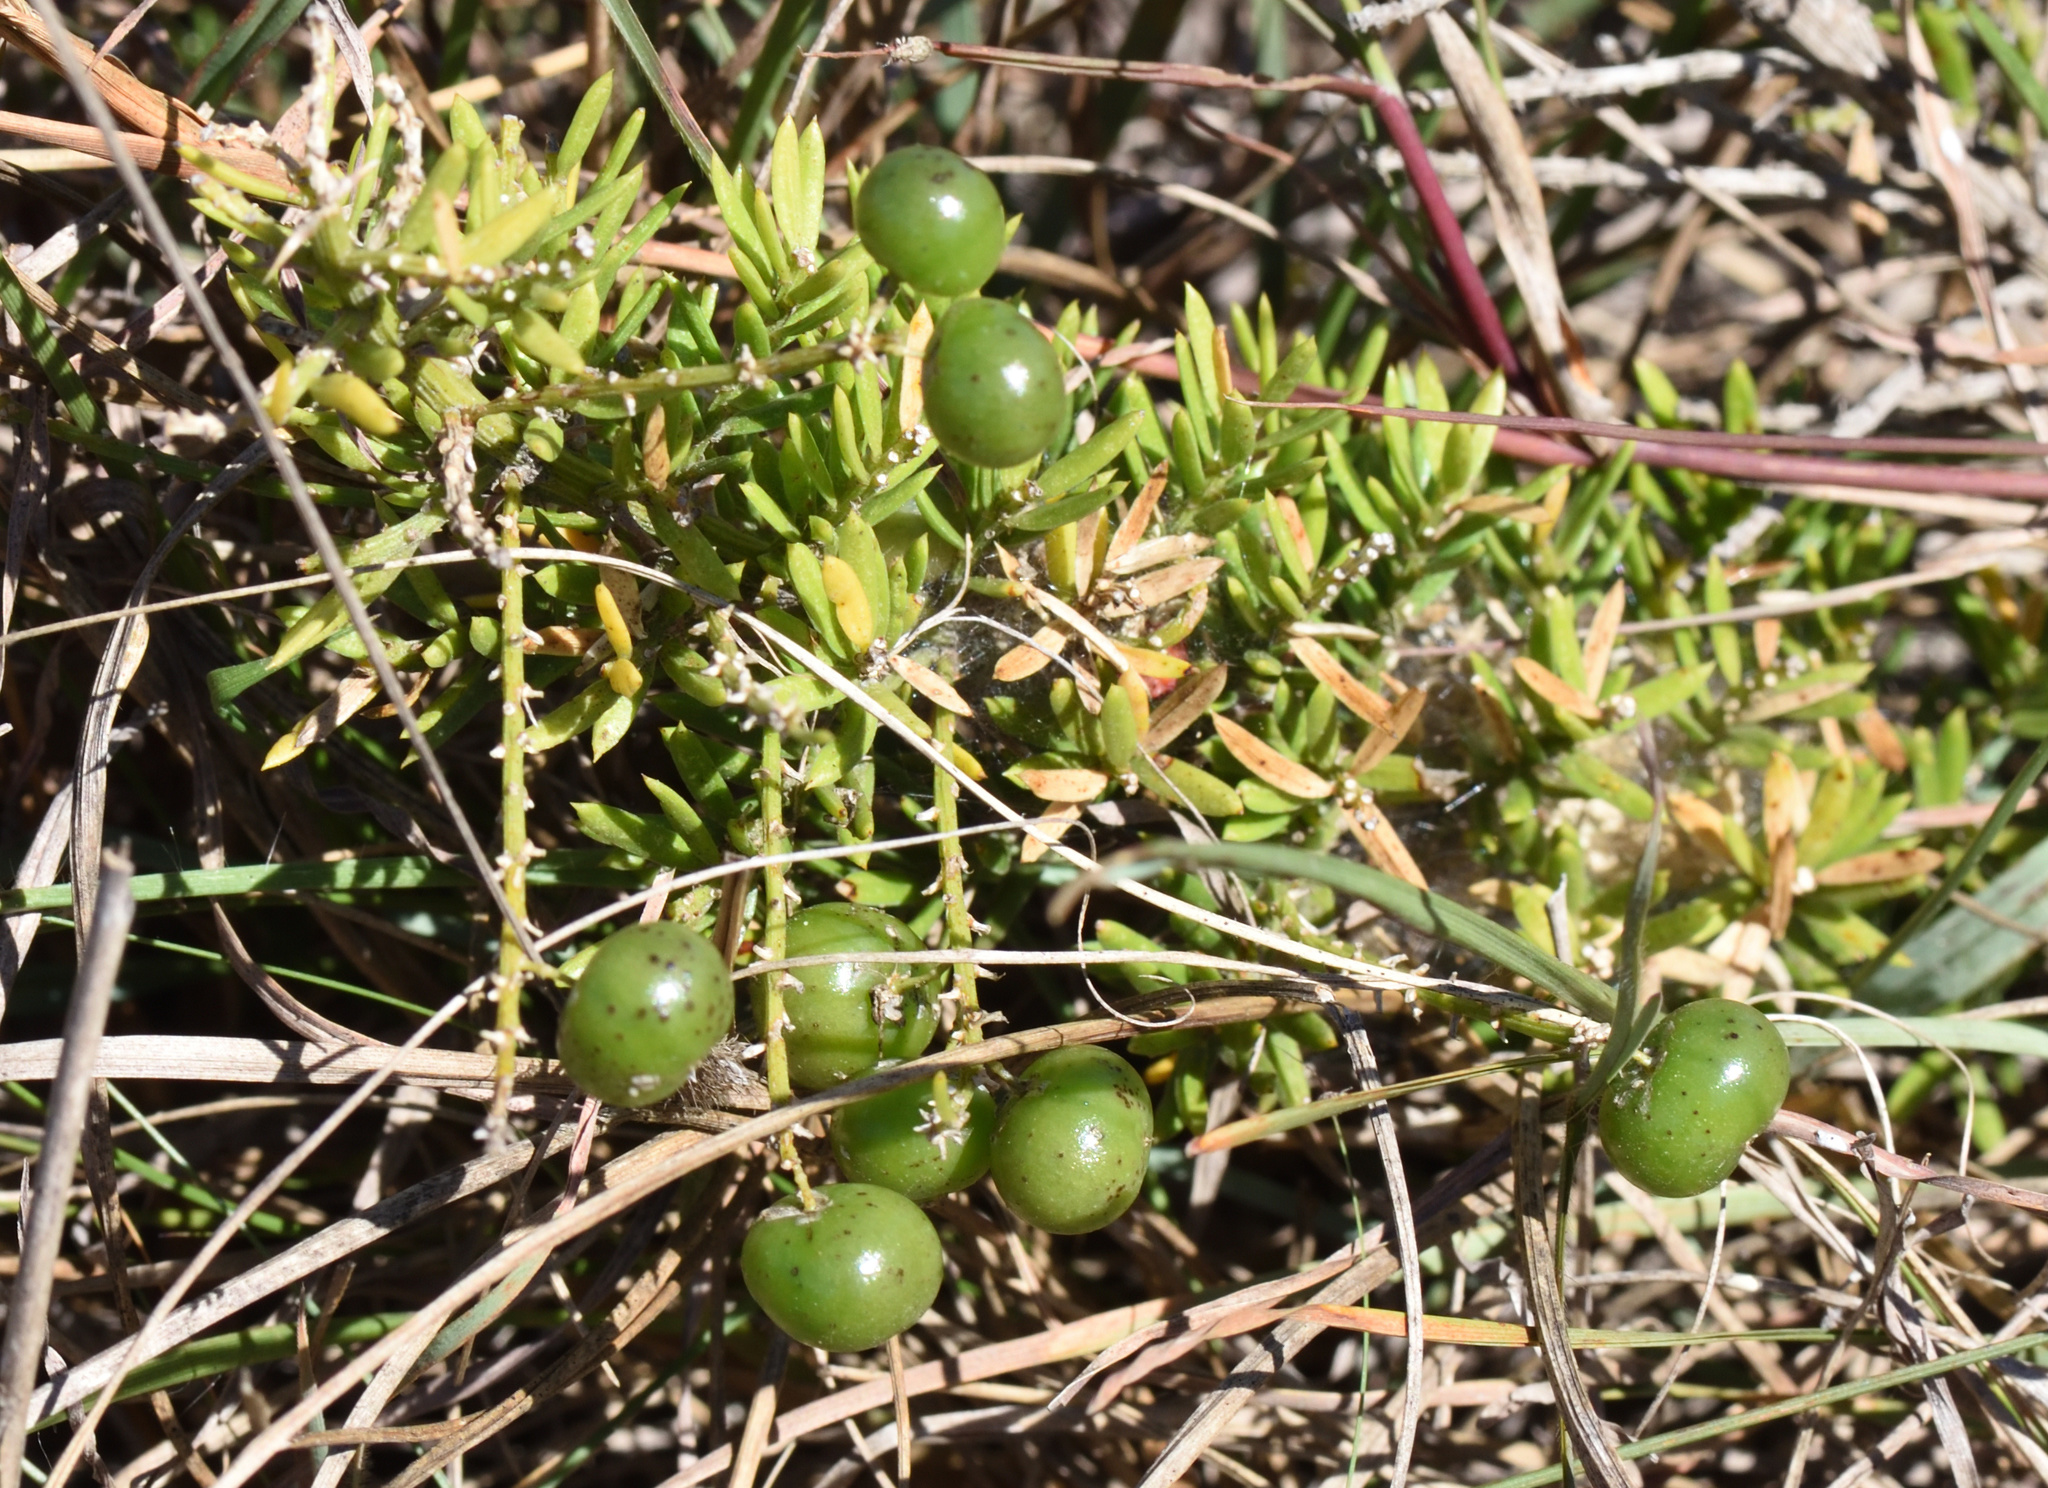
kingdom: Plantae
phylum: Tracheophyta
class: Liliopsida
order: Asparagales
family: Asparagaceae
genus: Asparagus
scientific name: Asparagus densiflorus
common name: Asparagus fern
